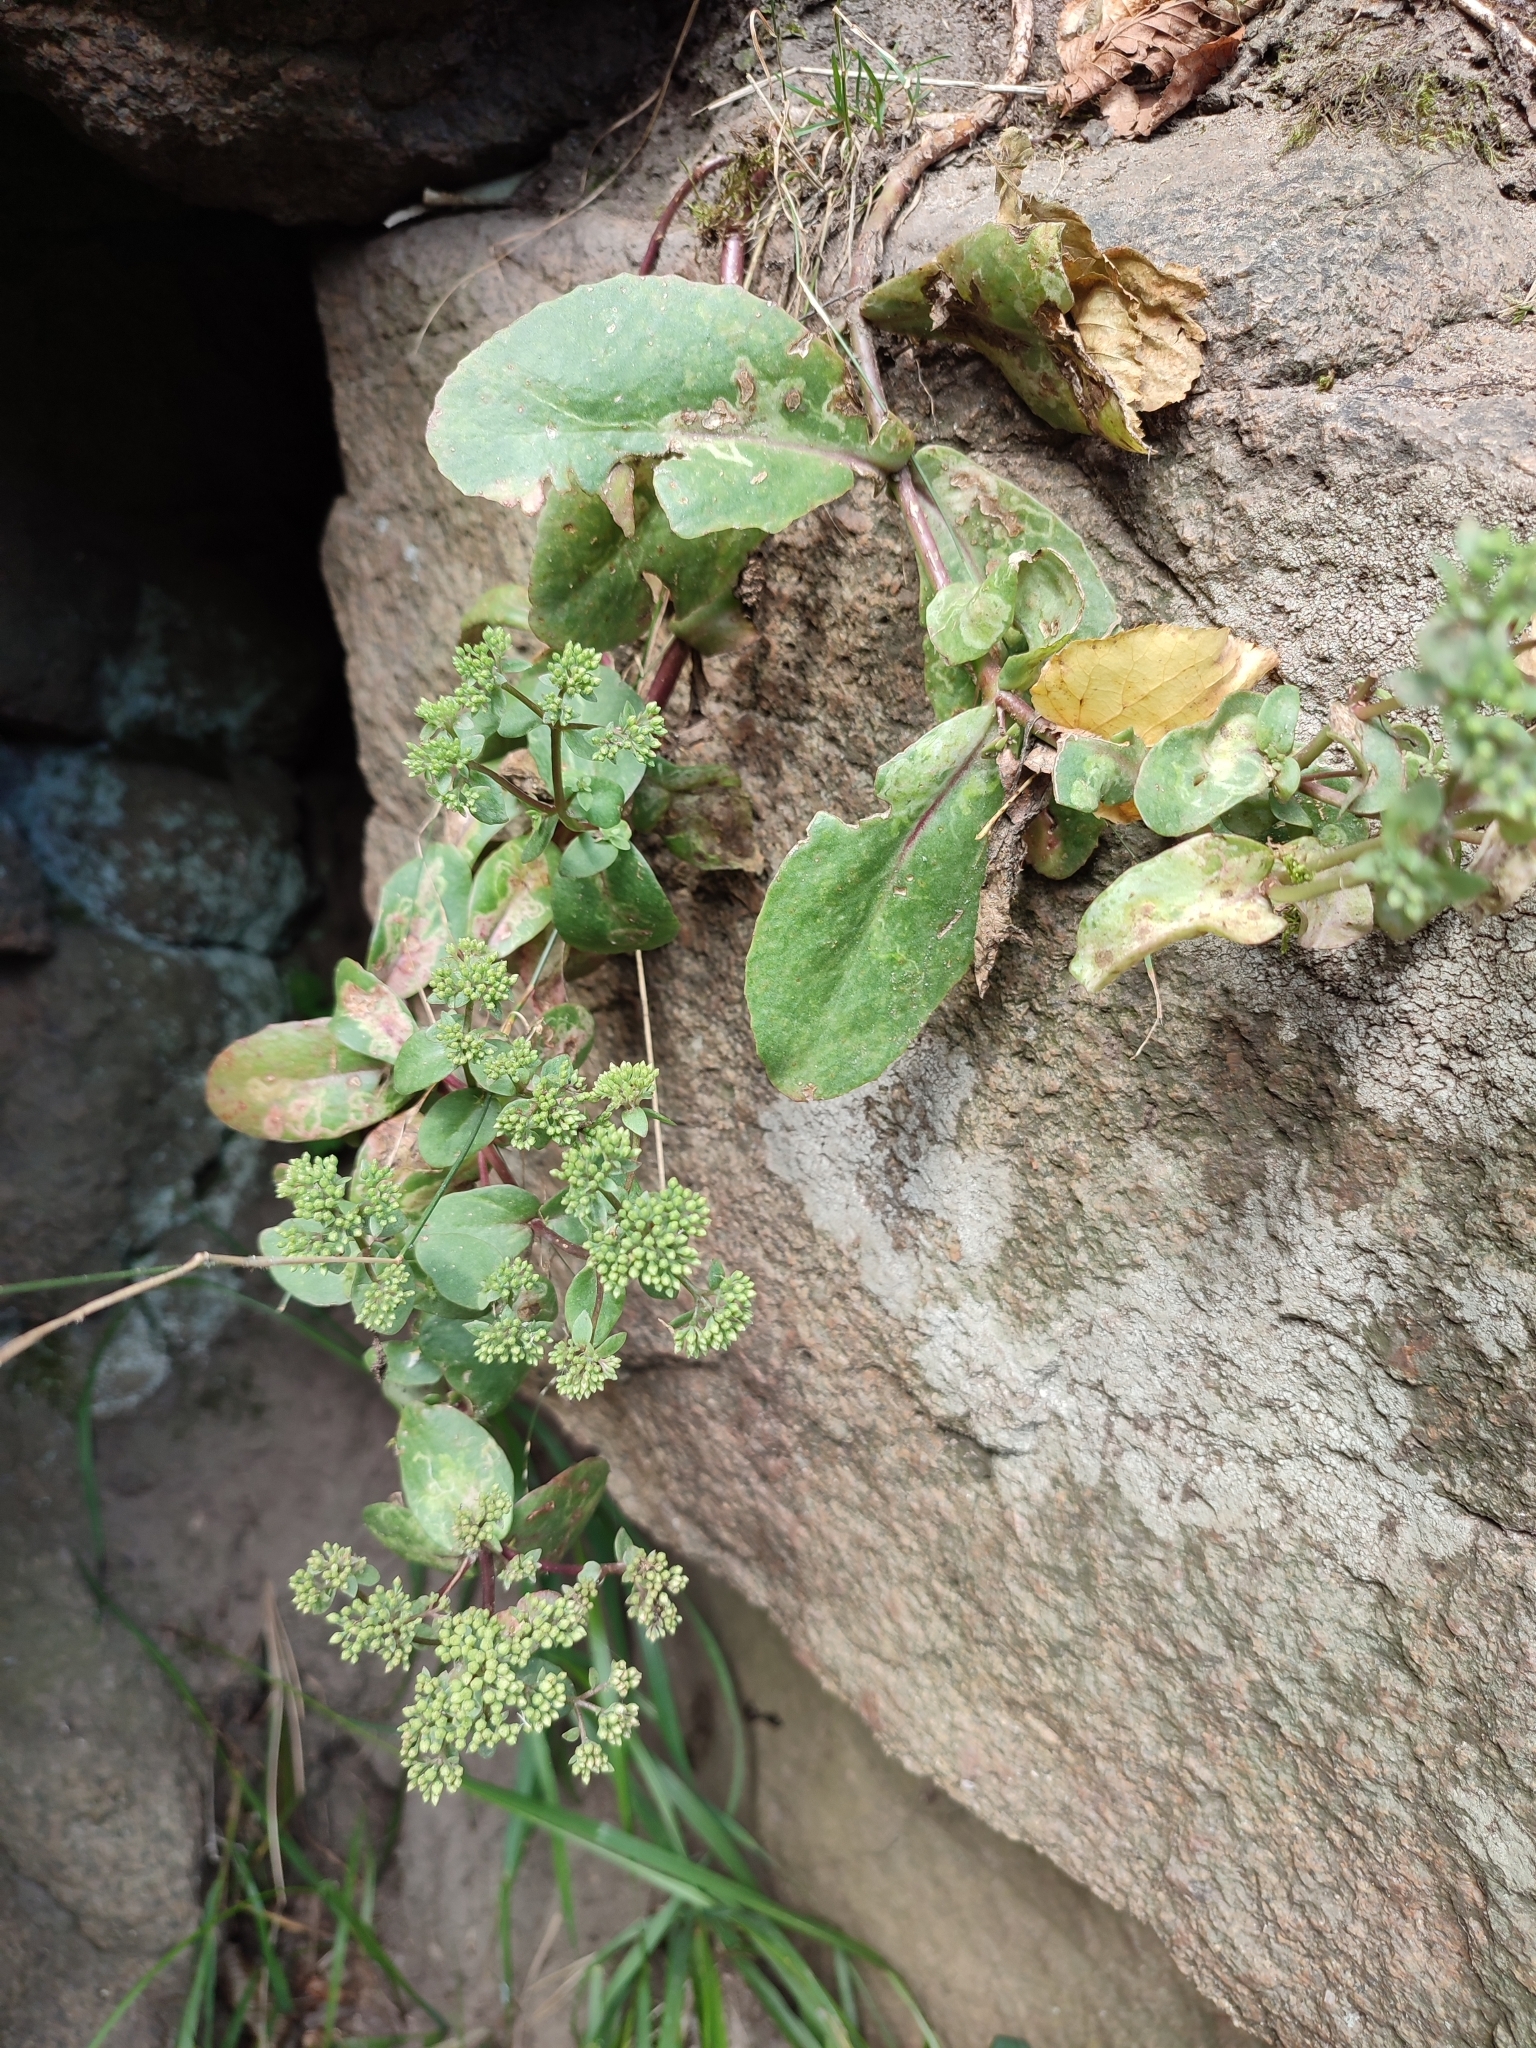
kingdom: Plantae
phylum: Tracheophyta
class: Magnoliopsida
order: Saxifragales
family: Crassulaceae
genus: Hylotelephium
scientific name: Hylotelephium maximum
